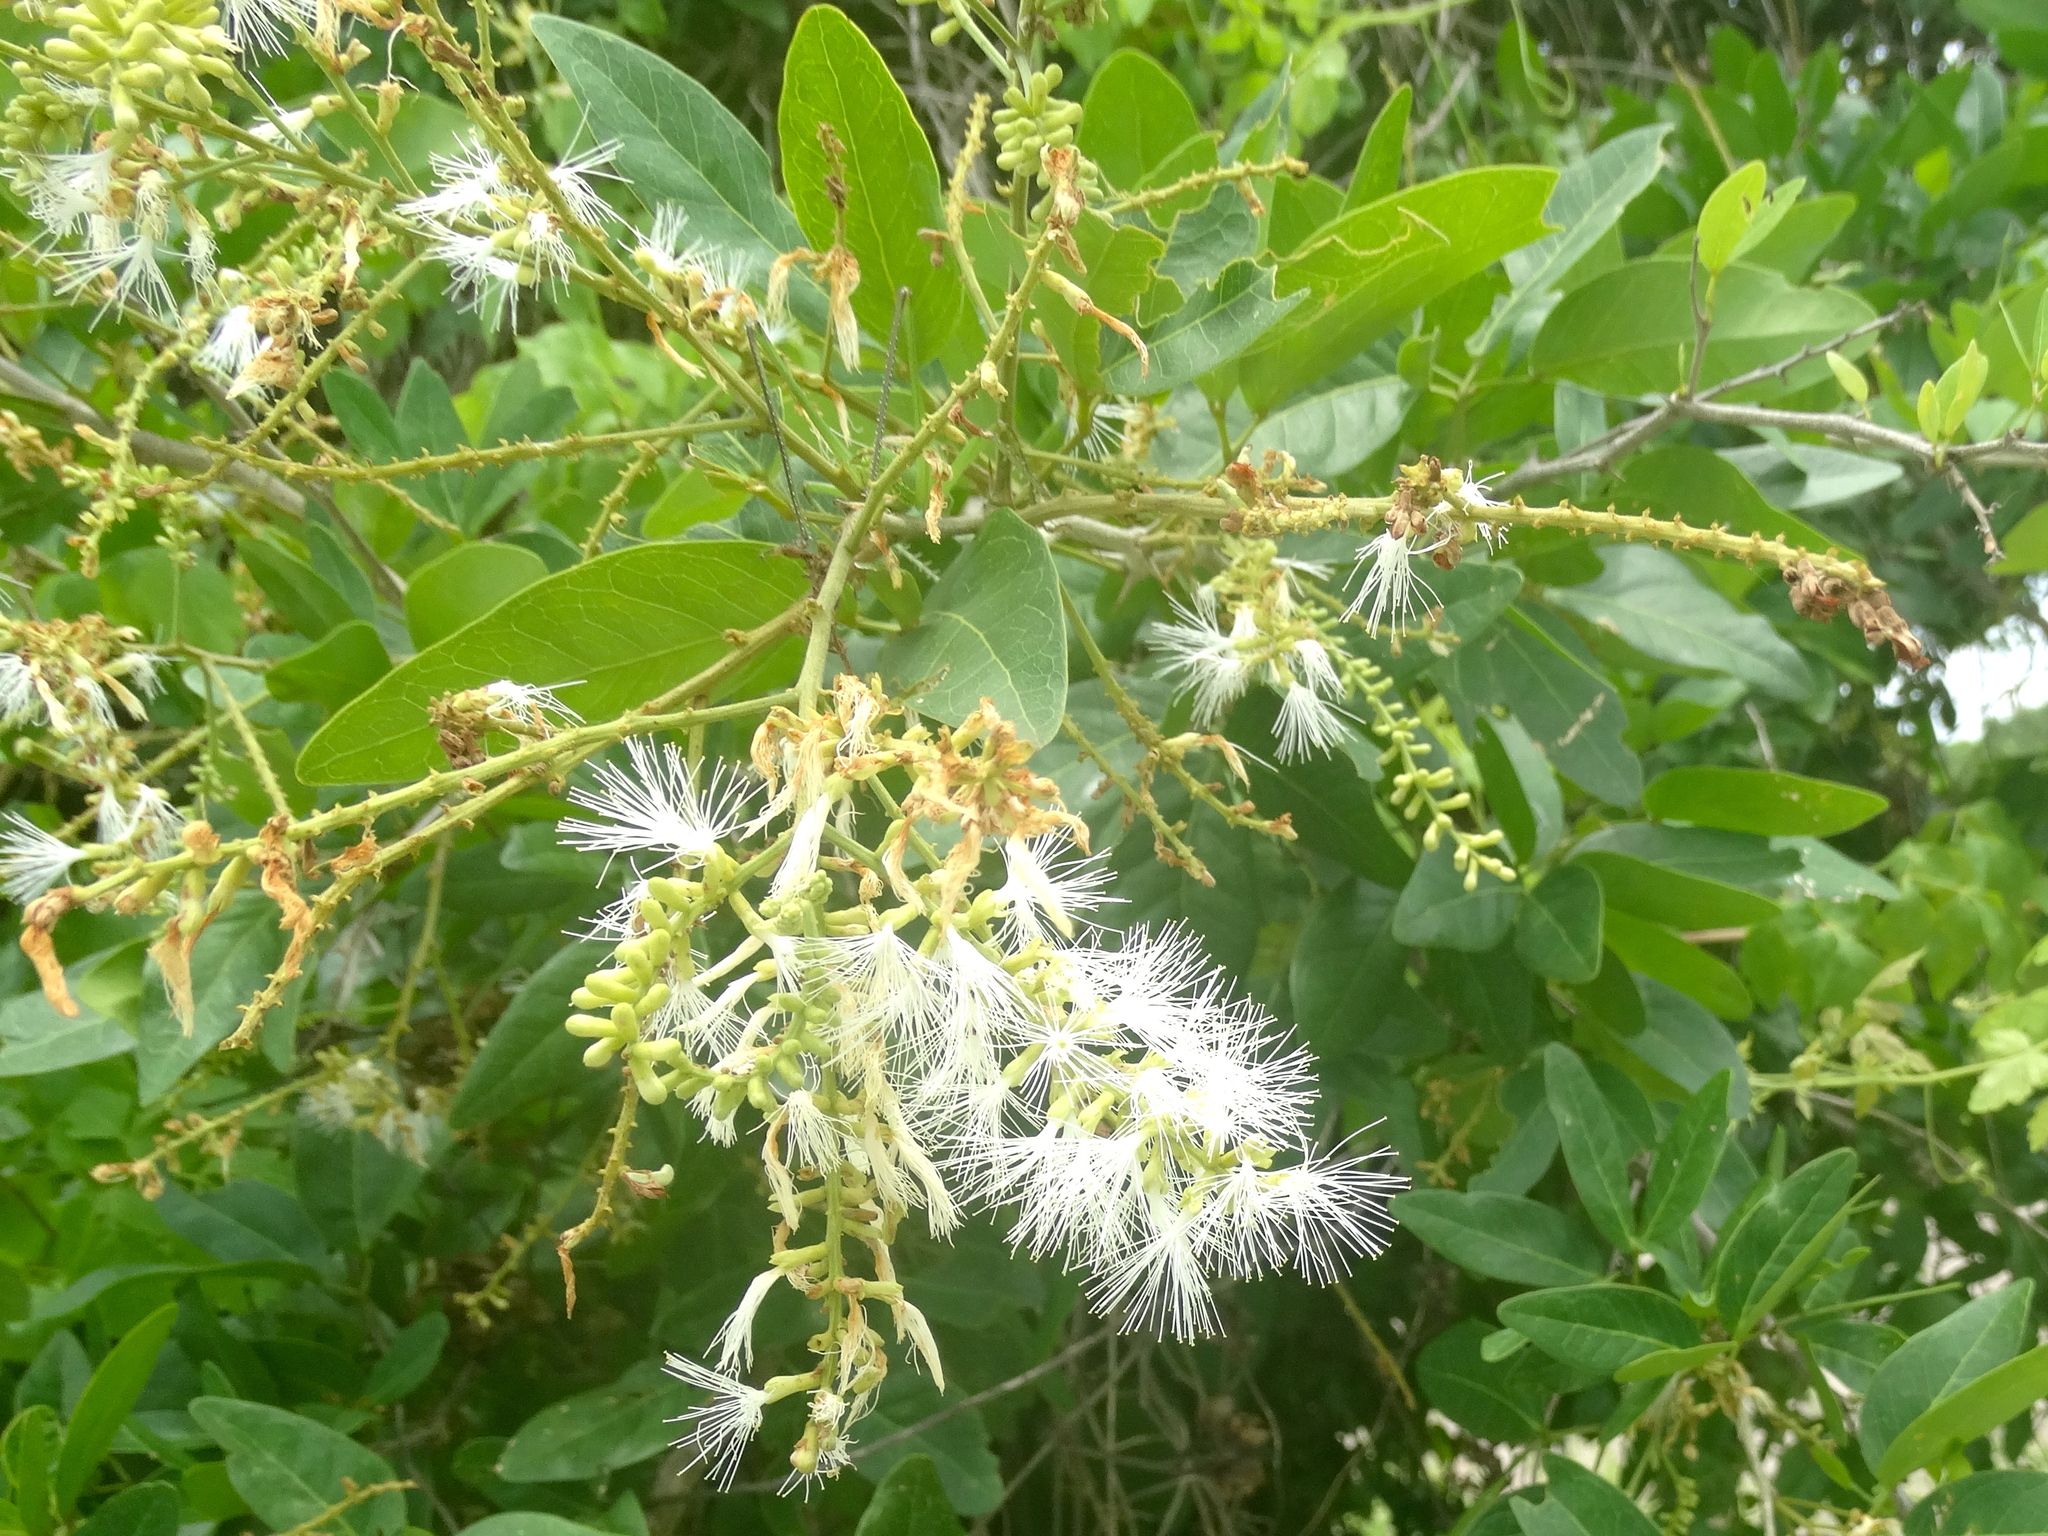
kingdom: Plantae
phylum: Tracheophyta
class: Magnoliopsida
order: Fabales
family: Fabaceae
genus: Pithecellobium
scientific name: Pithecellobium lanceolatum
